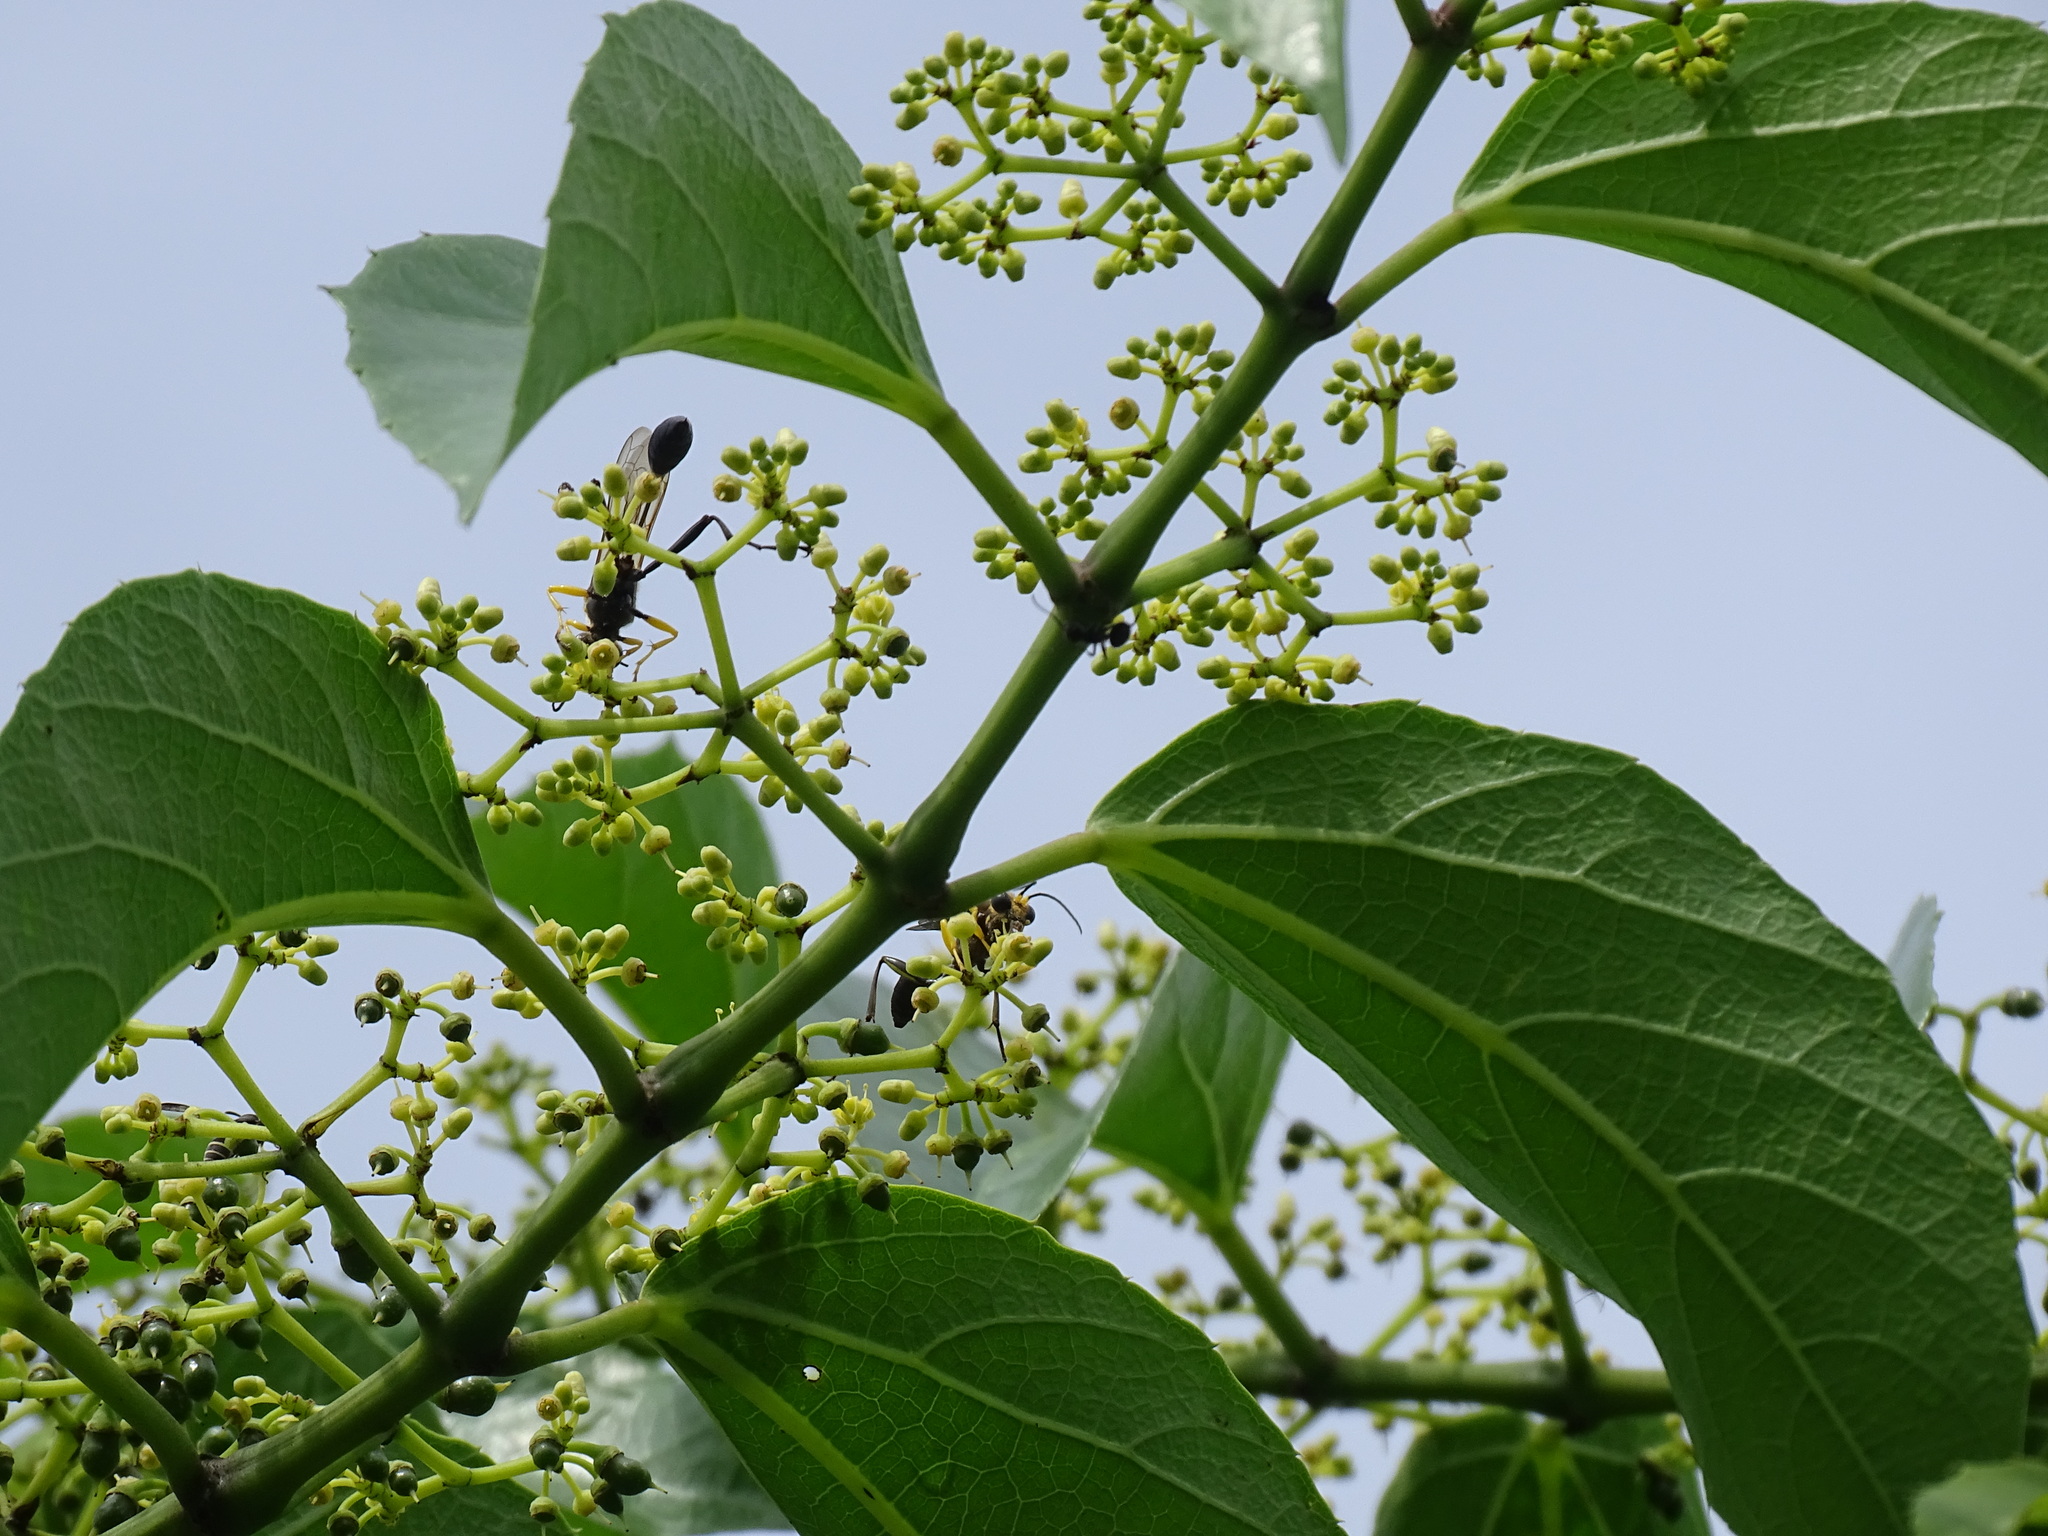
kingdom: Plantae
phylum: Tracheophyta
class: Magnoliopsida
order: Vitales
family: Vitaceae
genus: Cissus
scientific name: Cissus verticillata
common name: Princess vine
